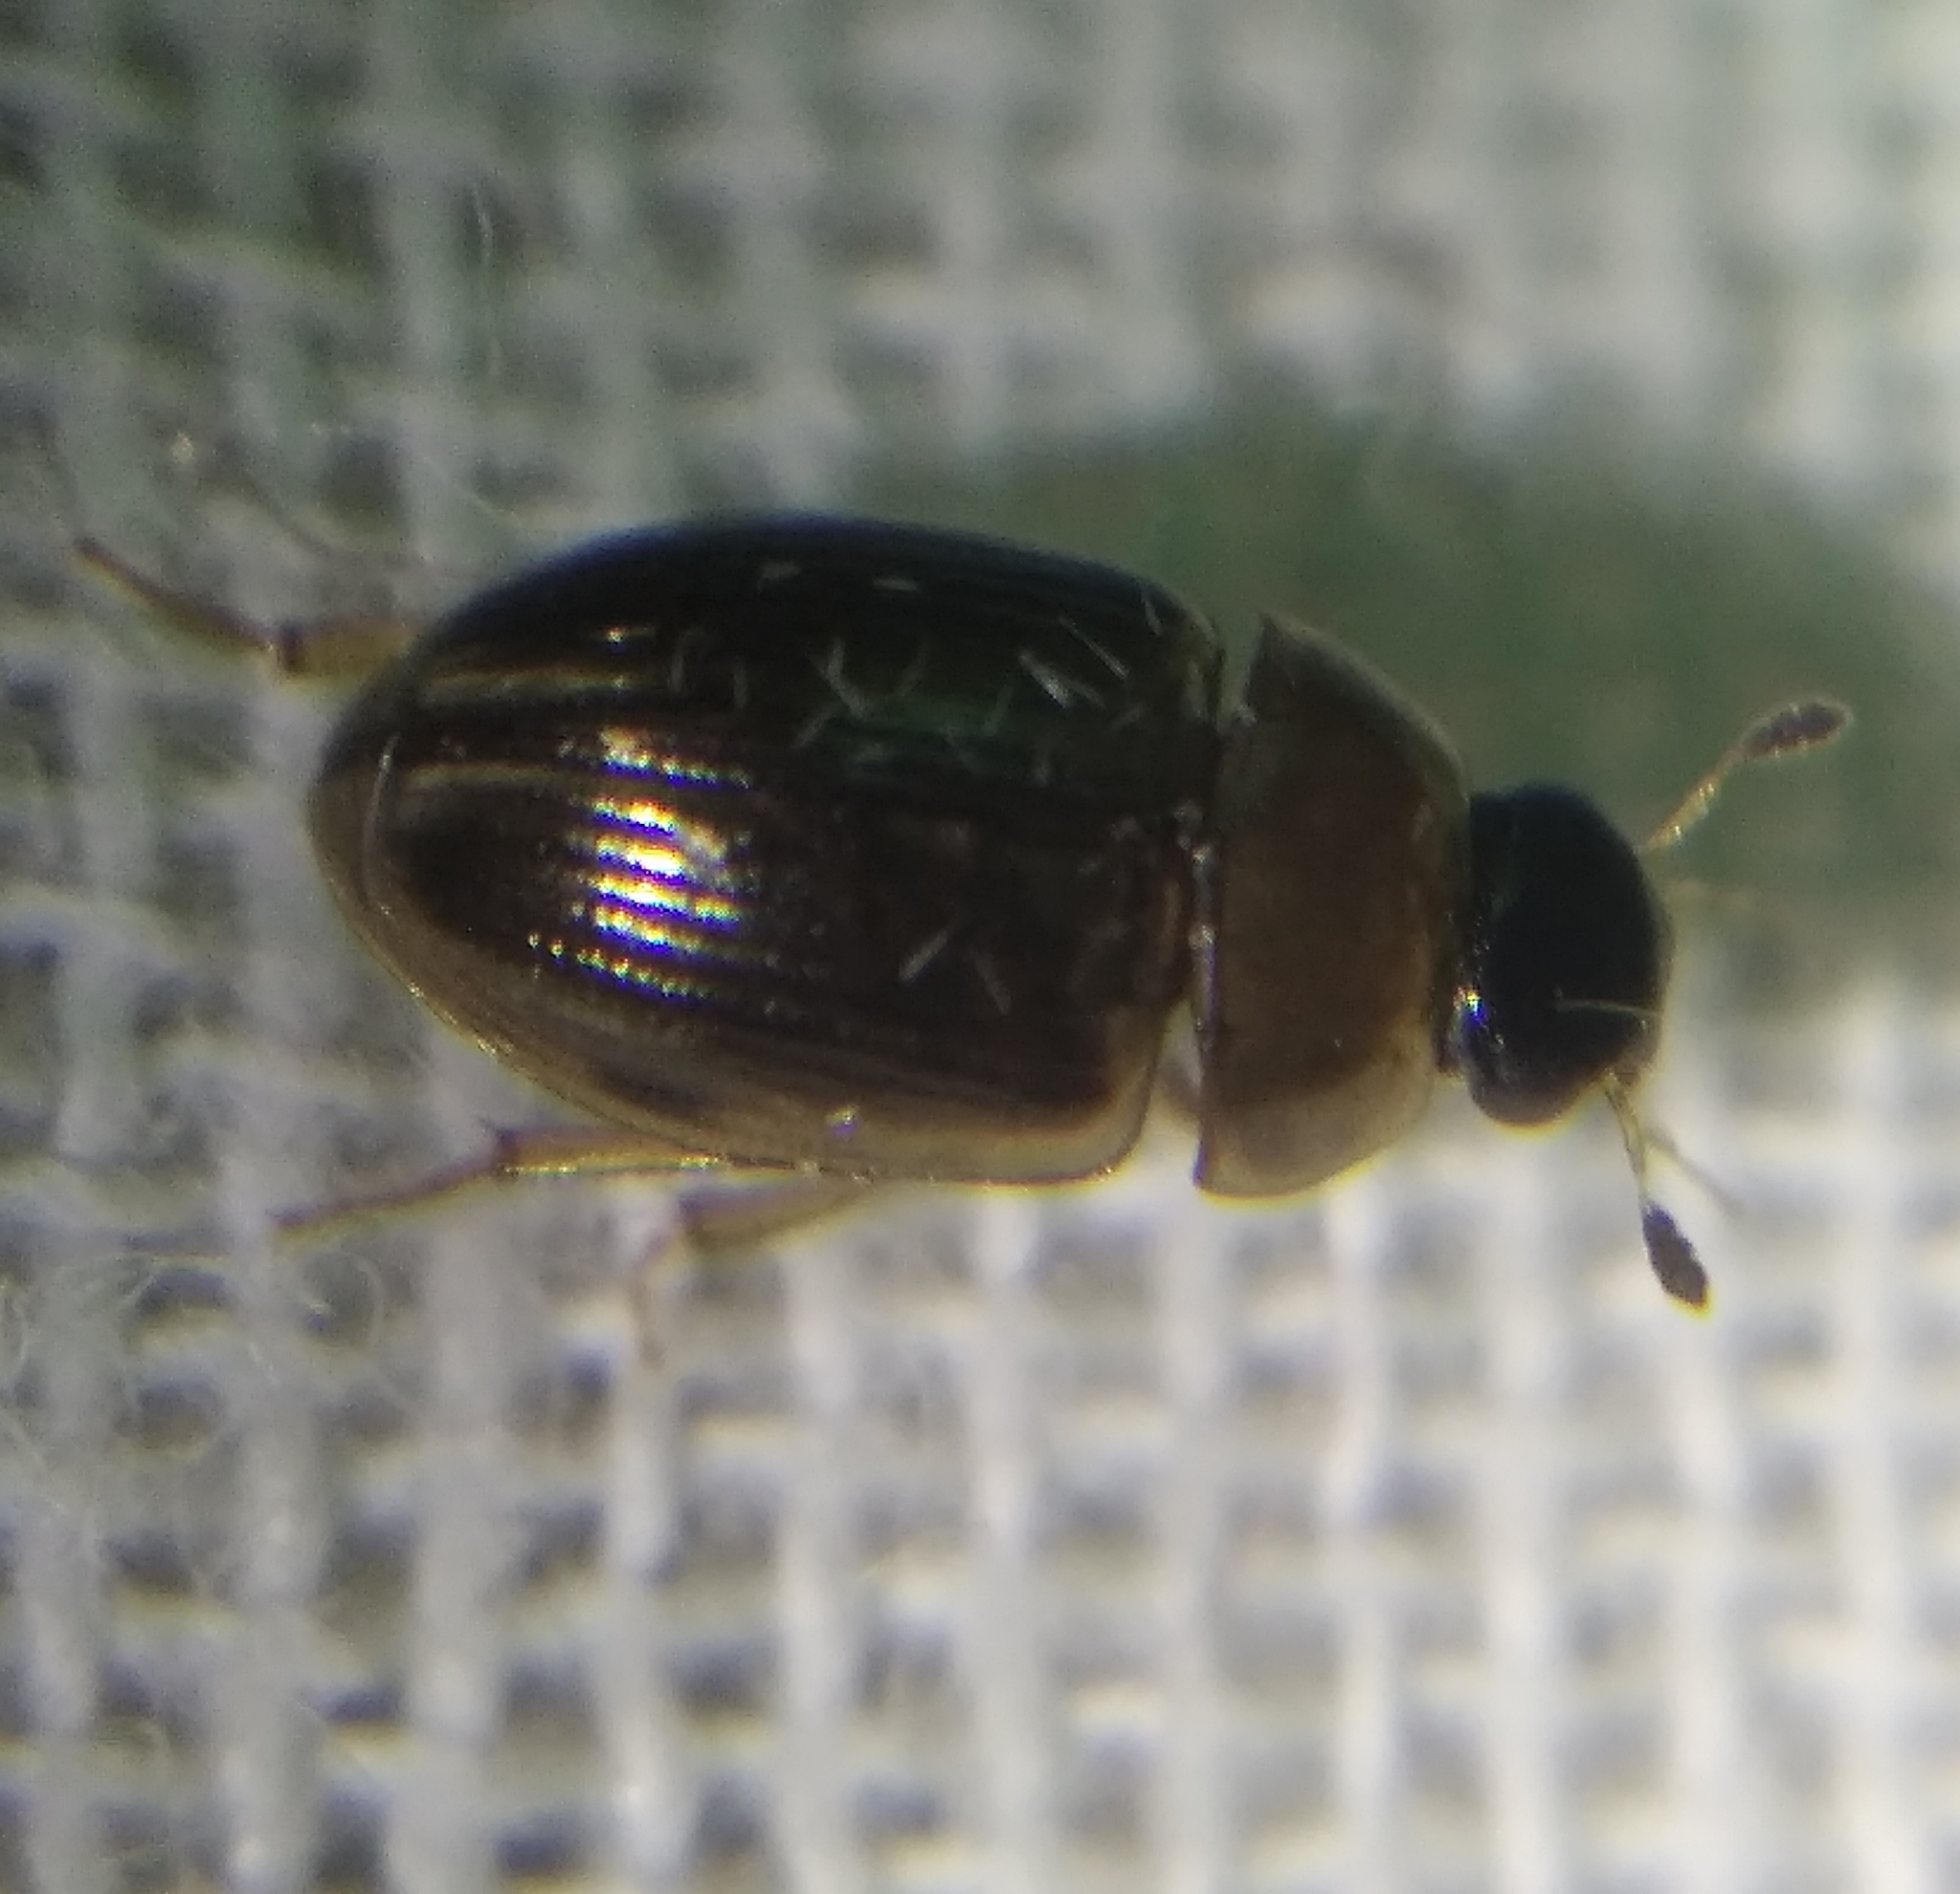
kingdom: Animalia
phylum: Arthropoda
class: Insecta
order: Coleoptera
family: Hydrophilidae
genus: Cercyon
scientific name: Cercyon laminatus
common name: Water scavenger beetle
